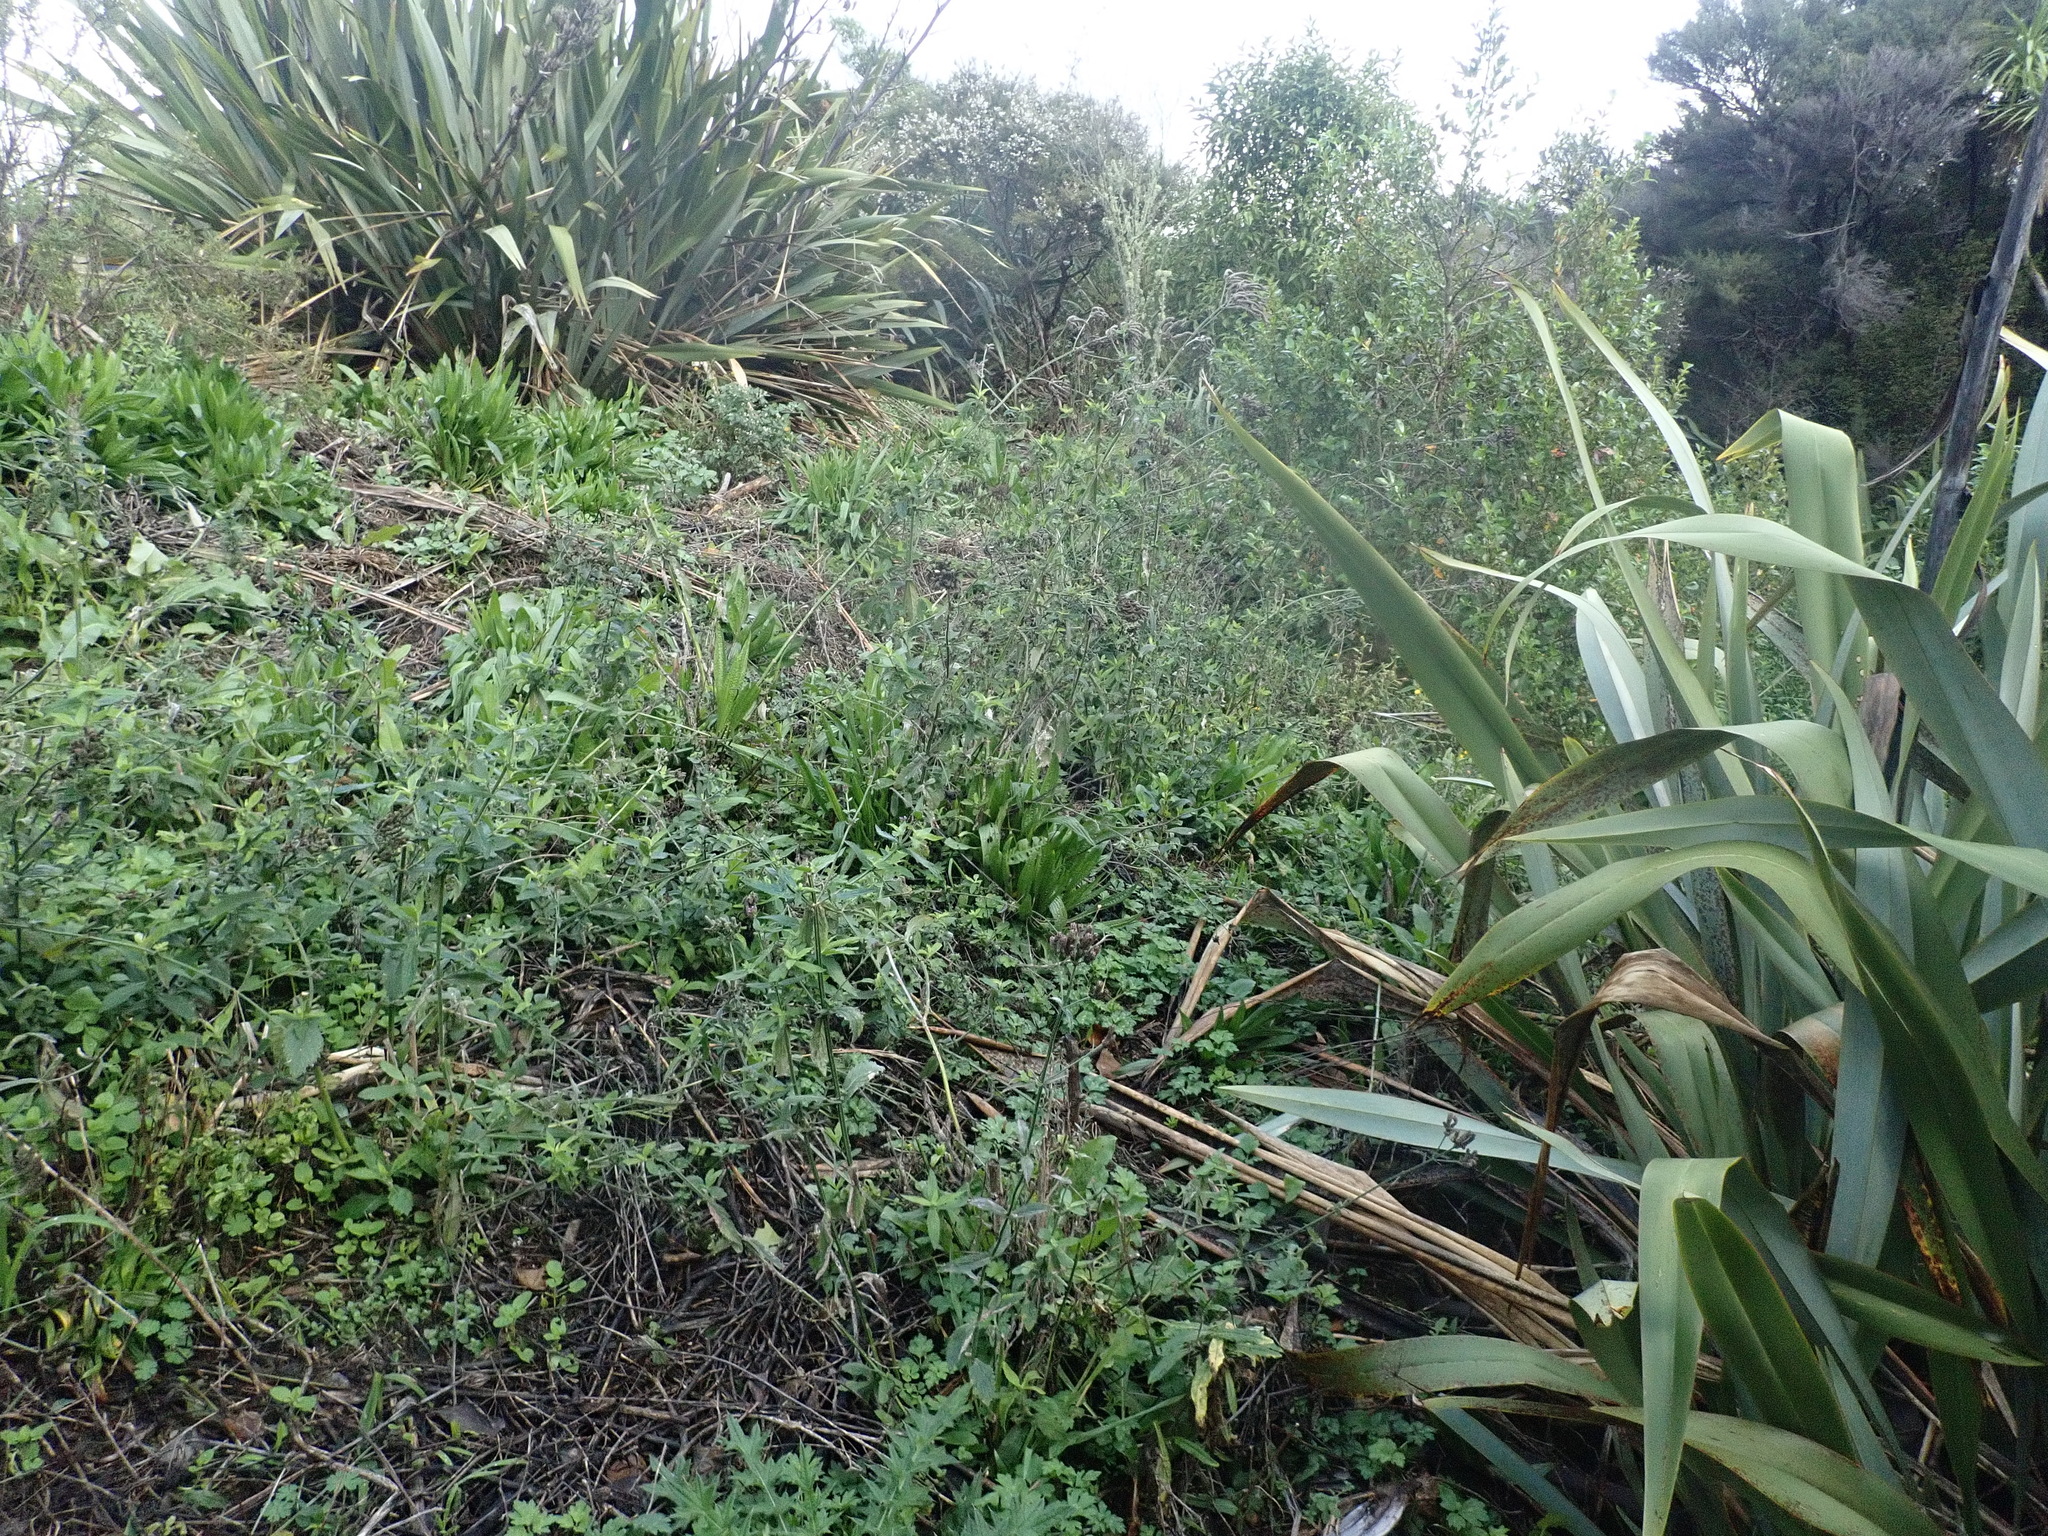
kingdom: Plantae
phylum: Tracheophyta
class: Magnoliopsida
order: Lamiales
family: Verbenaceae
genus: Verbena
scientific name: Verbena incompta
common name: Purpletop vervain
